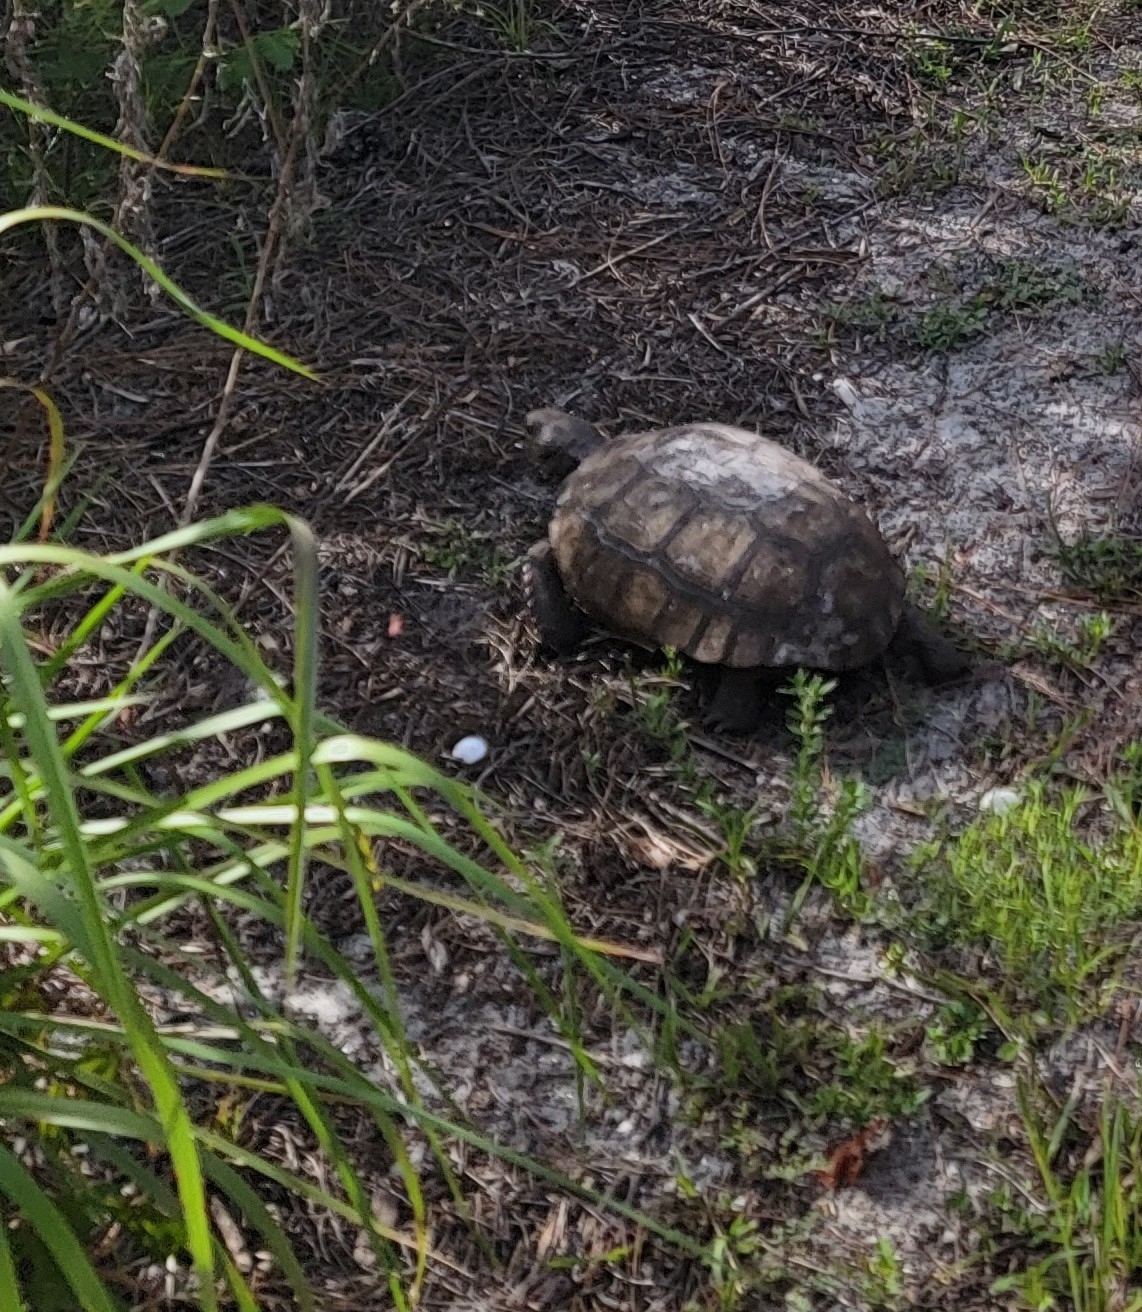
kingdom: Animalia
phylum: Chordata
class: Testudines
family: Testudinidae
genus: Gopherus
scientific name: Gopherus polyphemus
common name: Florida gopher tortoise
